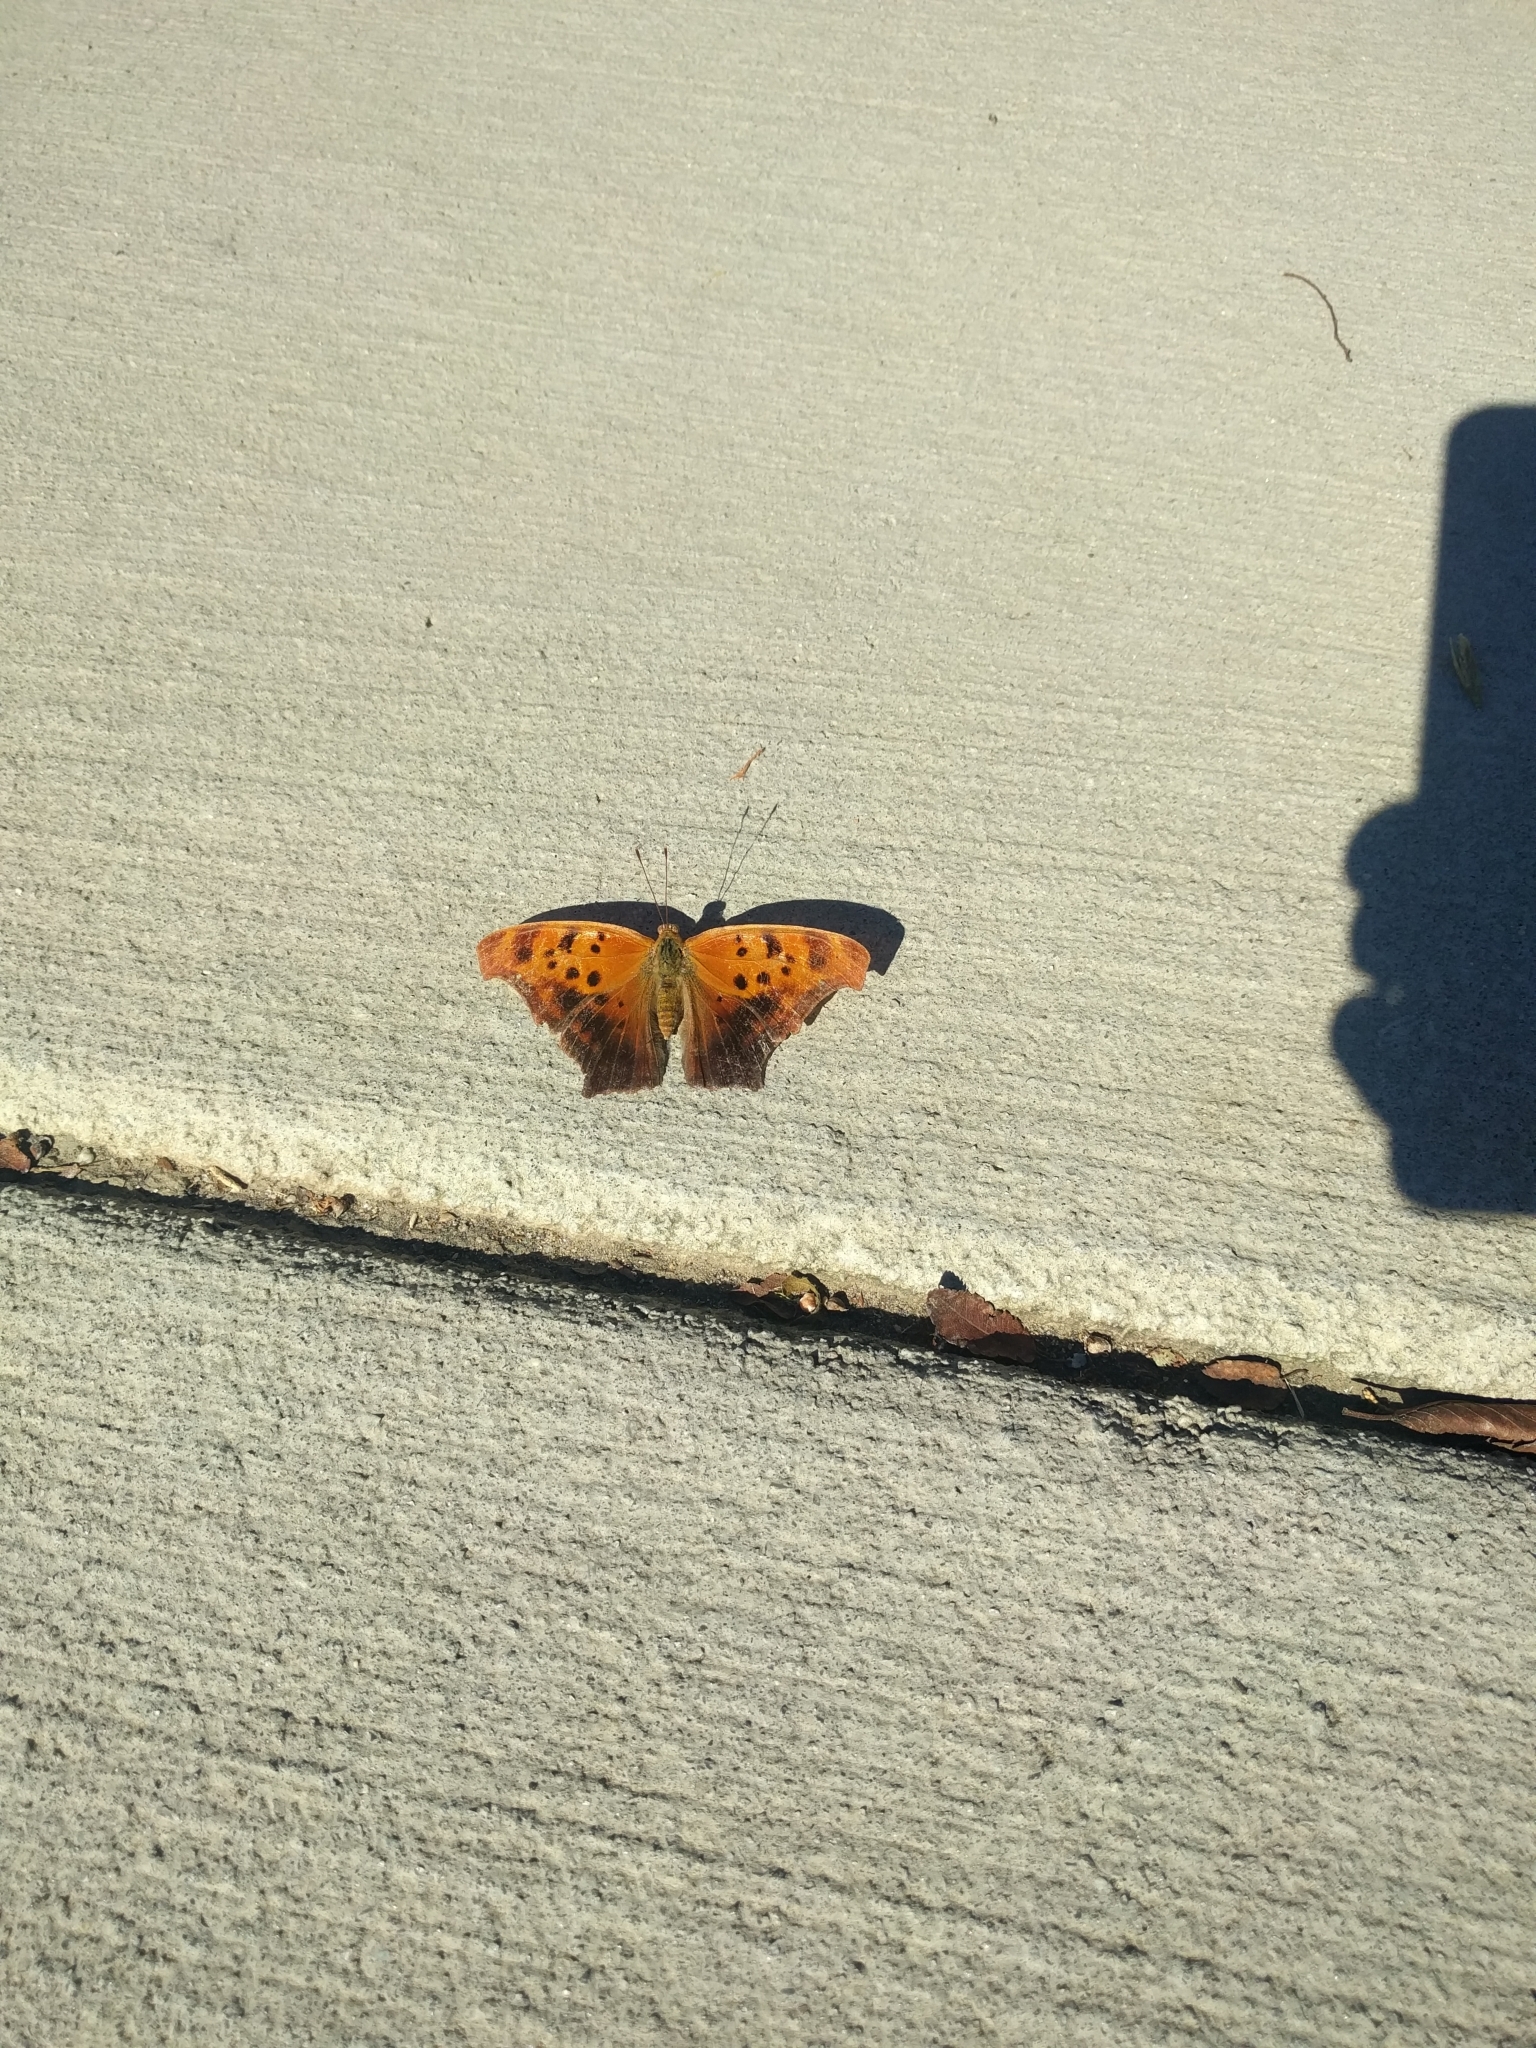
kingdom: Animalia
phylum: Arthropoda
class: Insecta
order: Lepidoptera
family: Nymphalidae
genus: Polygonia
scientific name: Polygonia interrogationis
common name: Question mark
